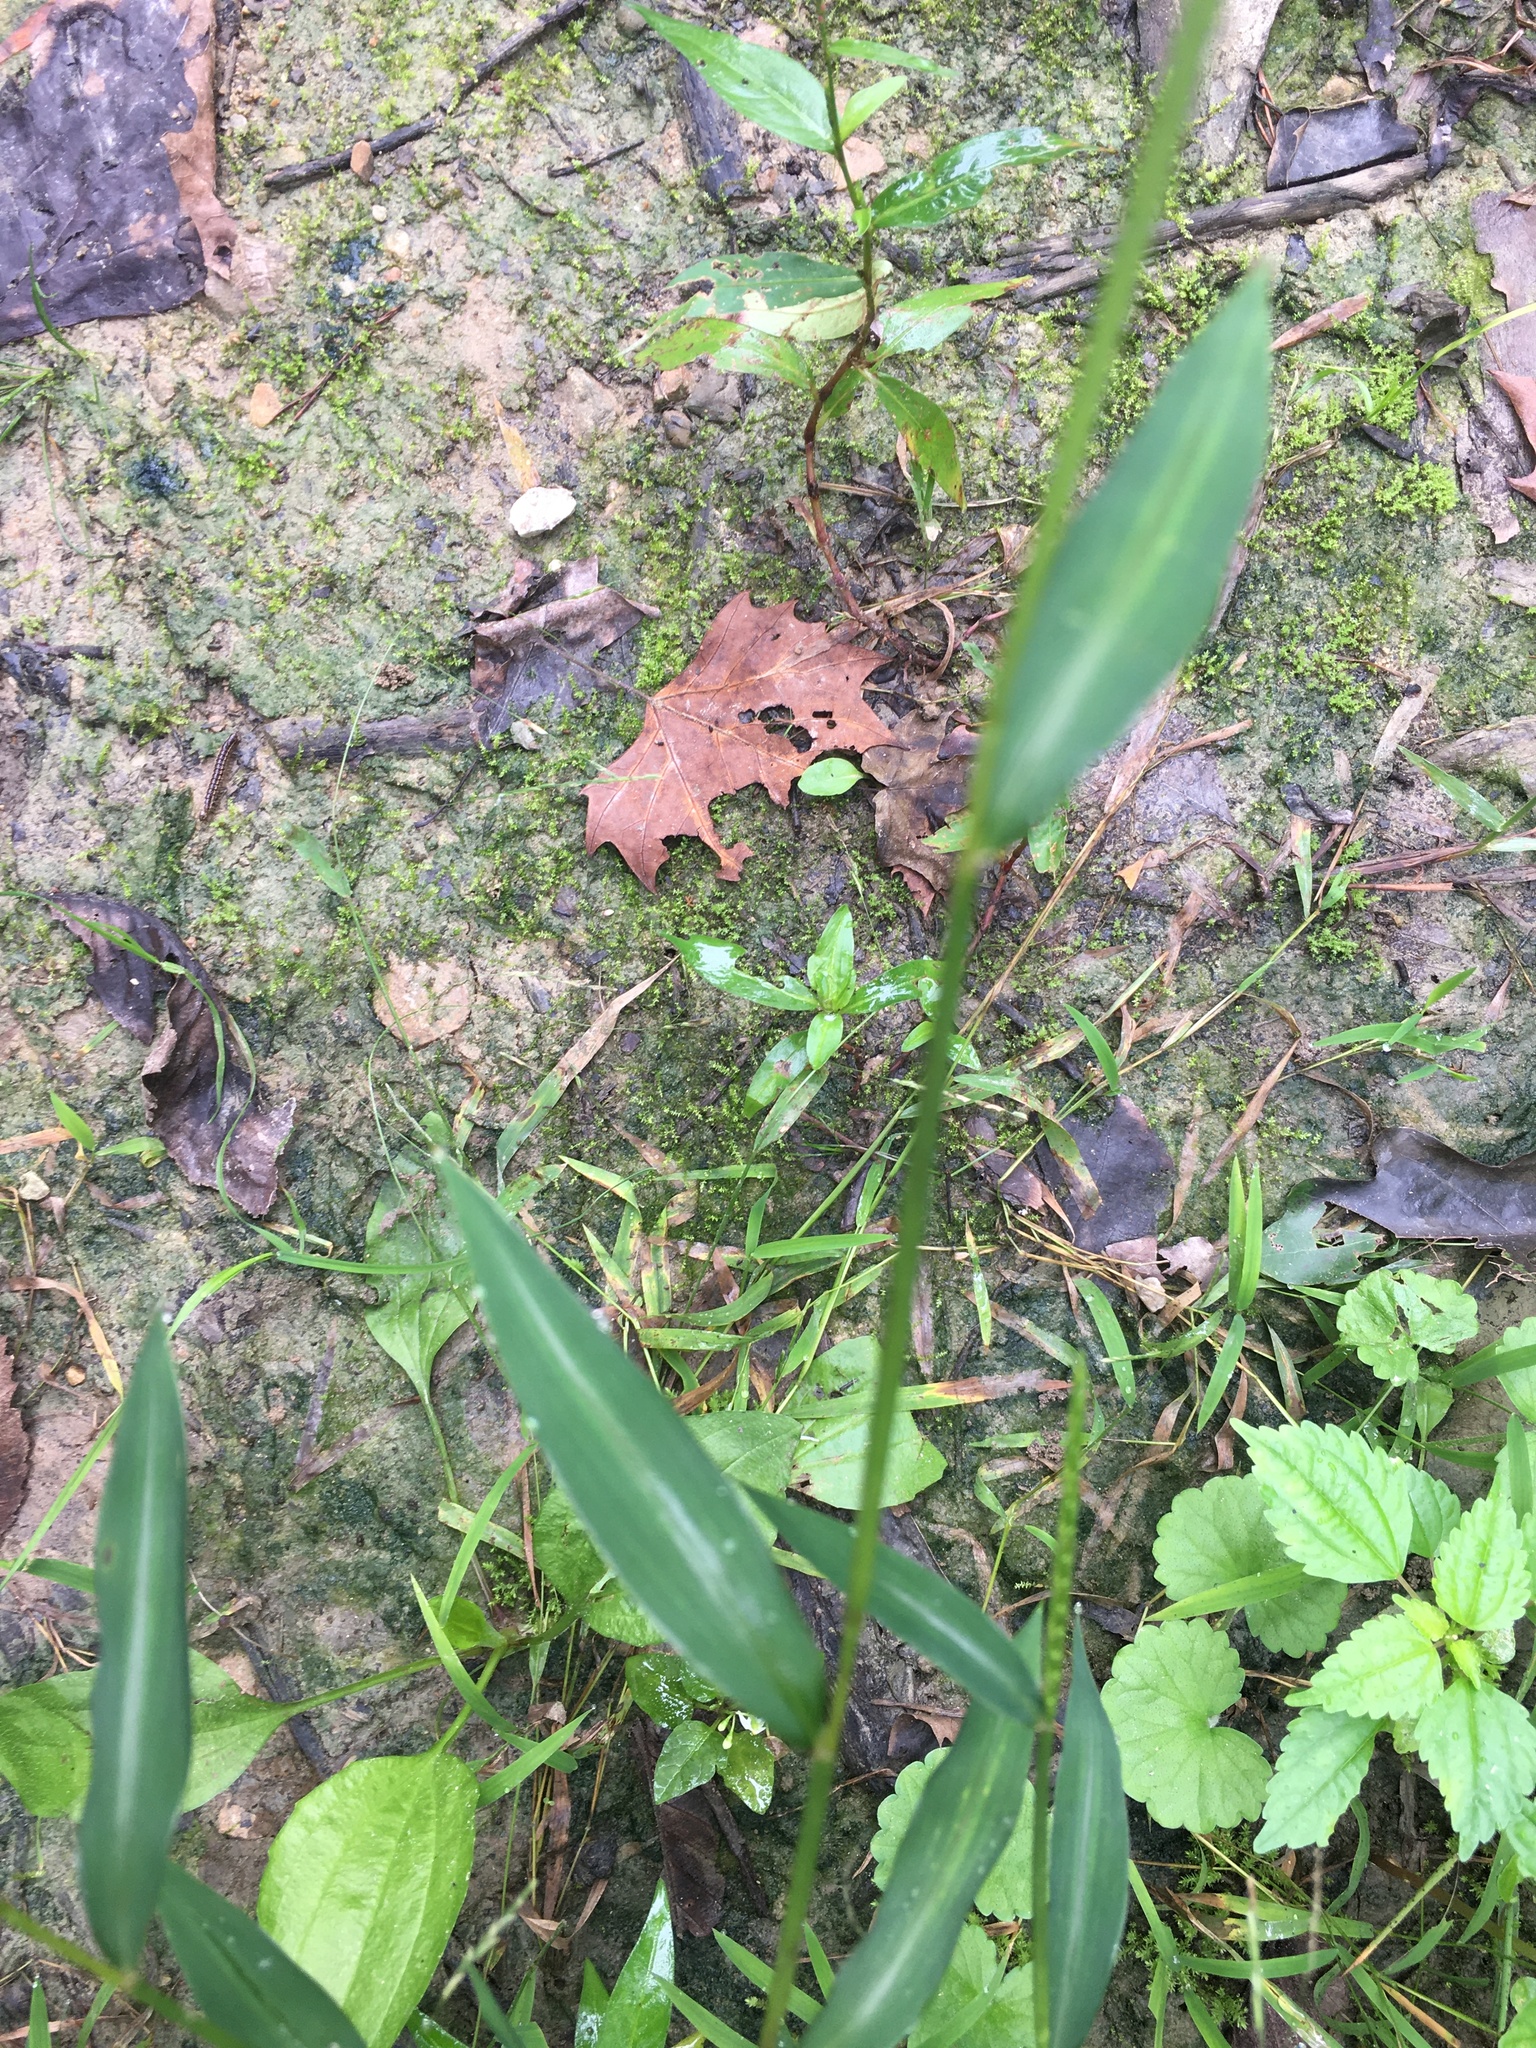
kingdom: Plantae
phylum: Tracheophyta
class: Liliopsida
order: Poales
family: Poaceae
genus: Microstegium
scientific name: Microstegium vimineum
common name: Japanese stiltgrass
